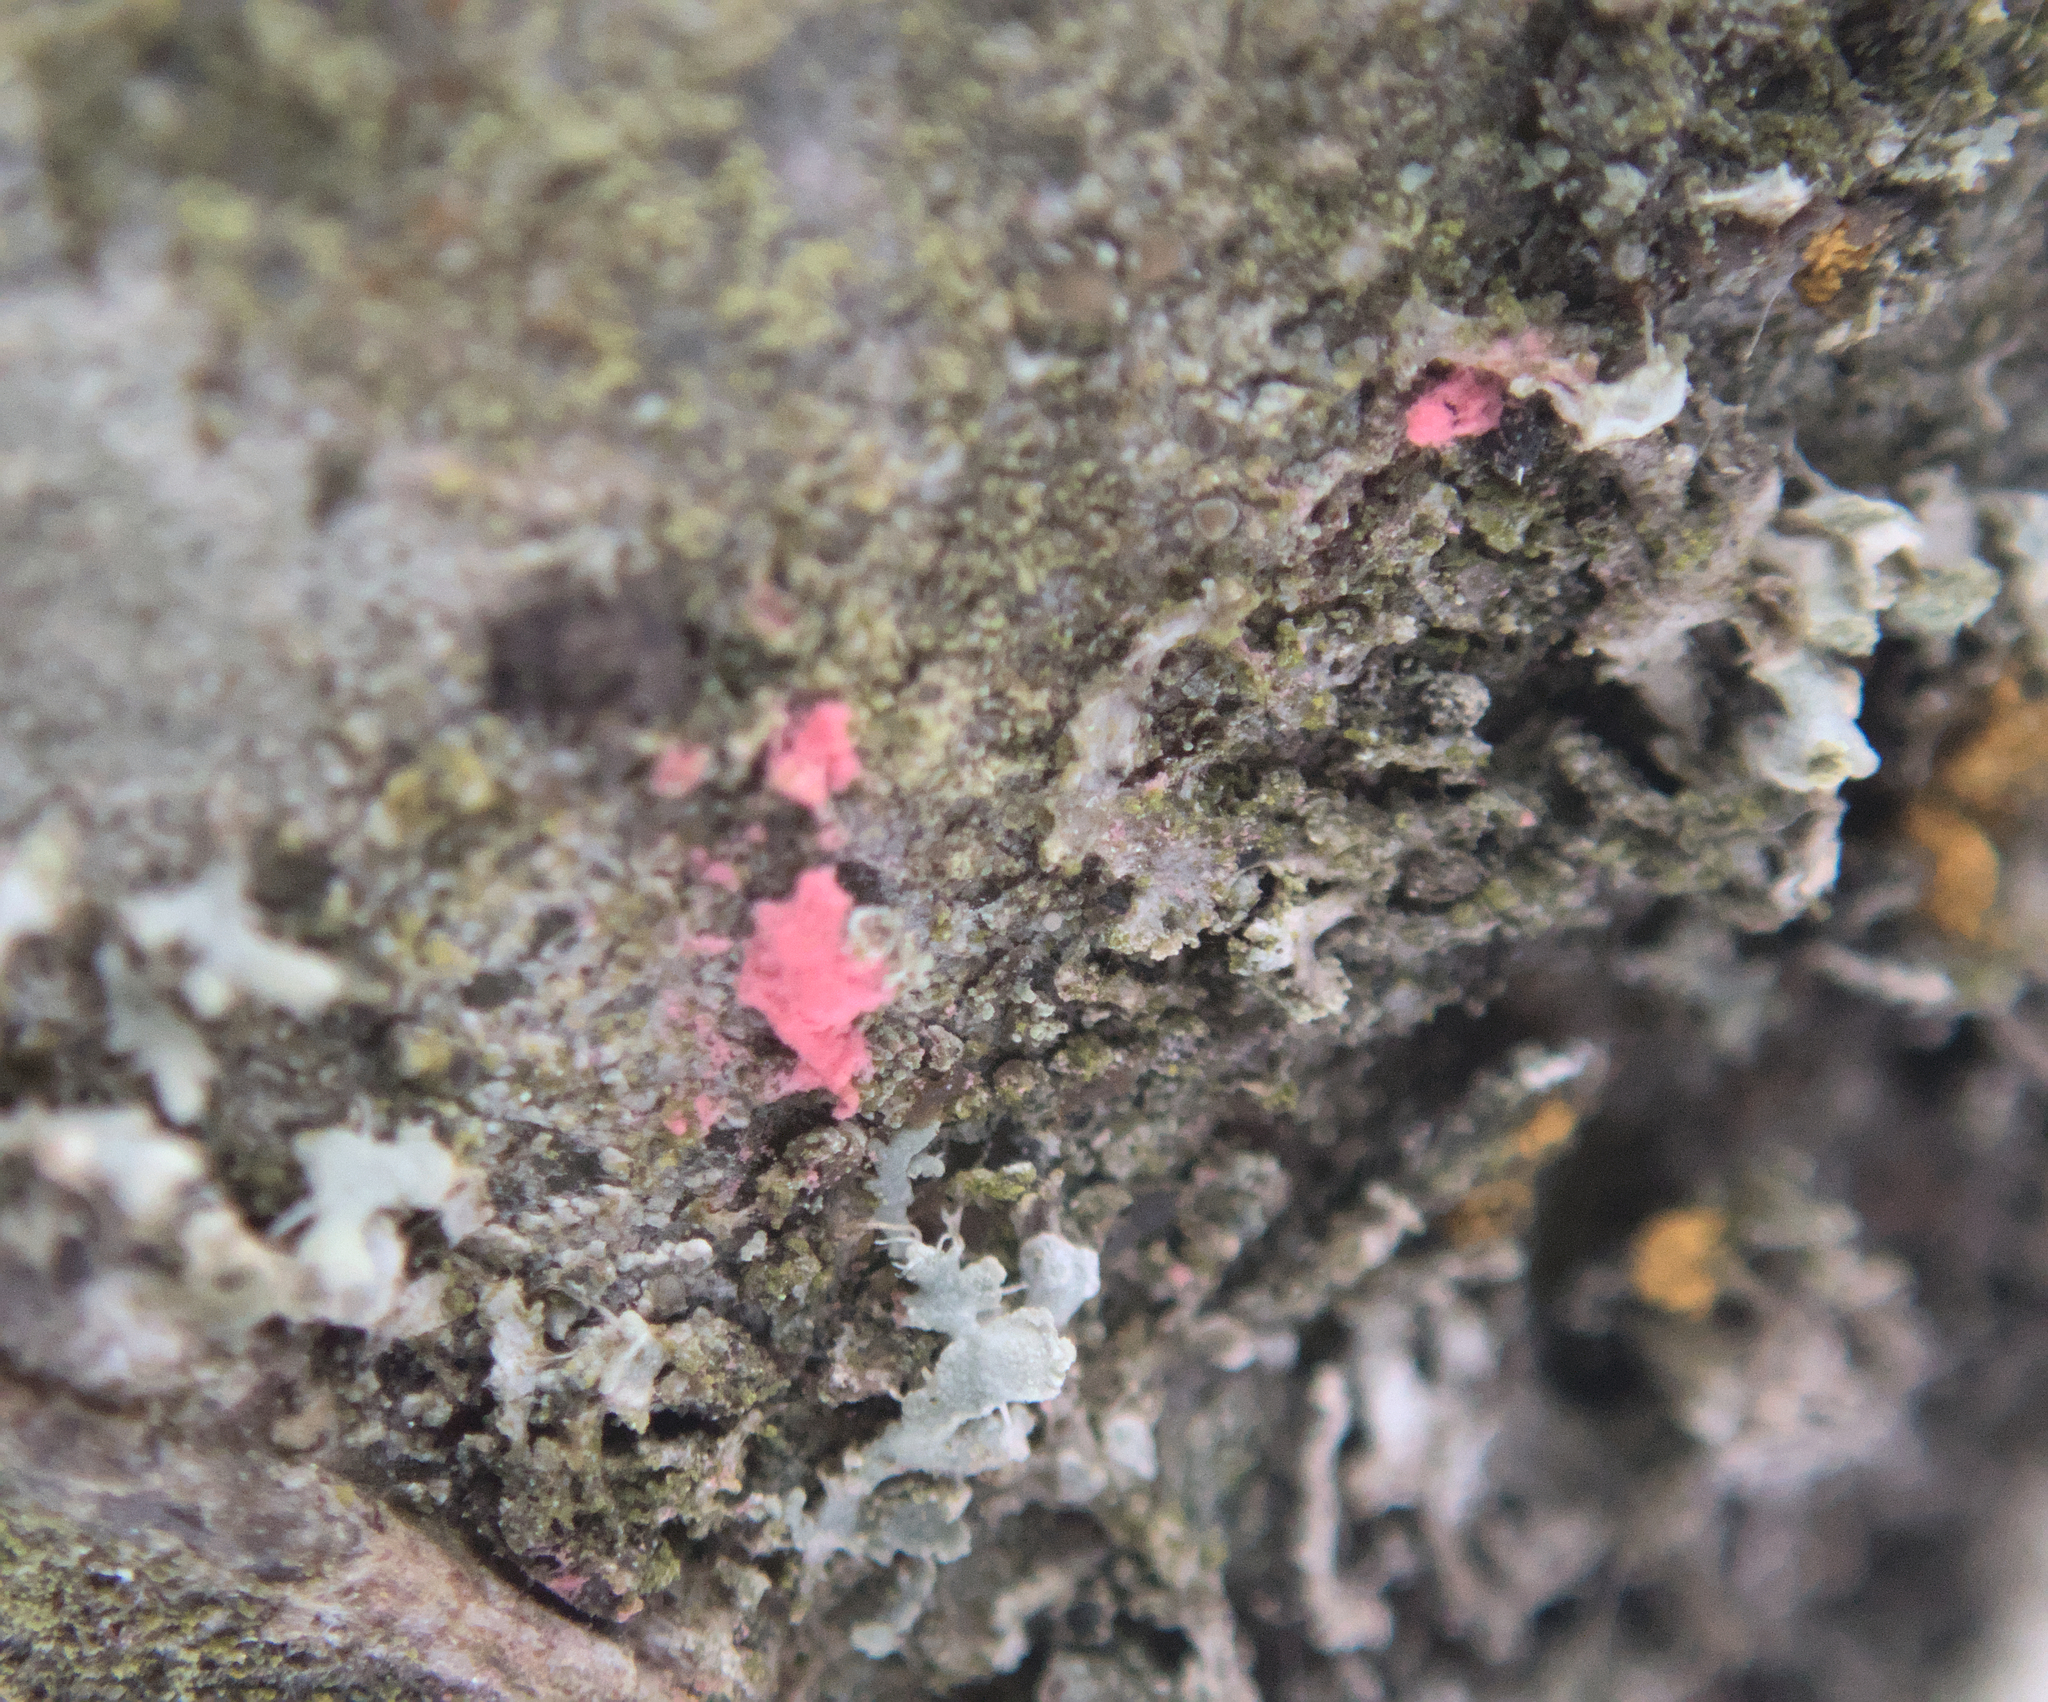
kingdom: Fungi
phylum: Ascomycota
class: Sordariomycetes
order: Hypocreales
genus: Illosporiopsis
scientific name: Illosporiopsis christiansenii
